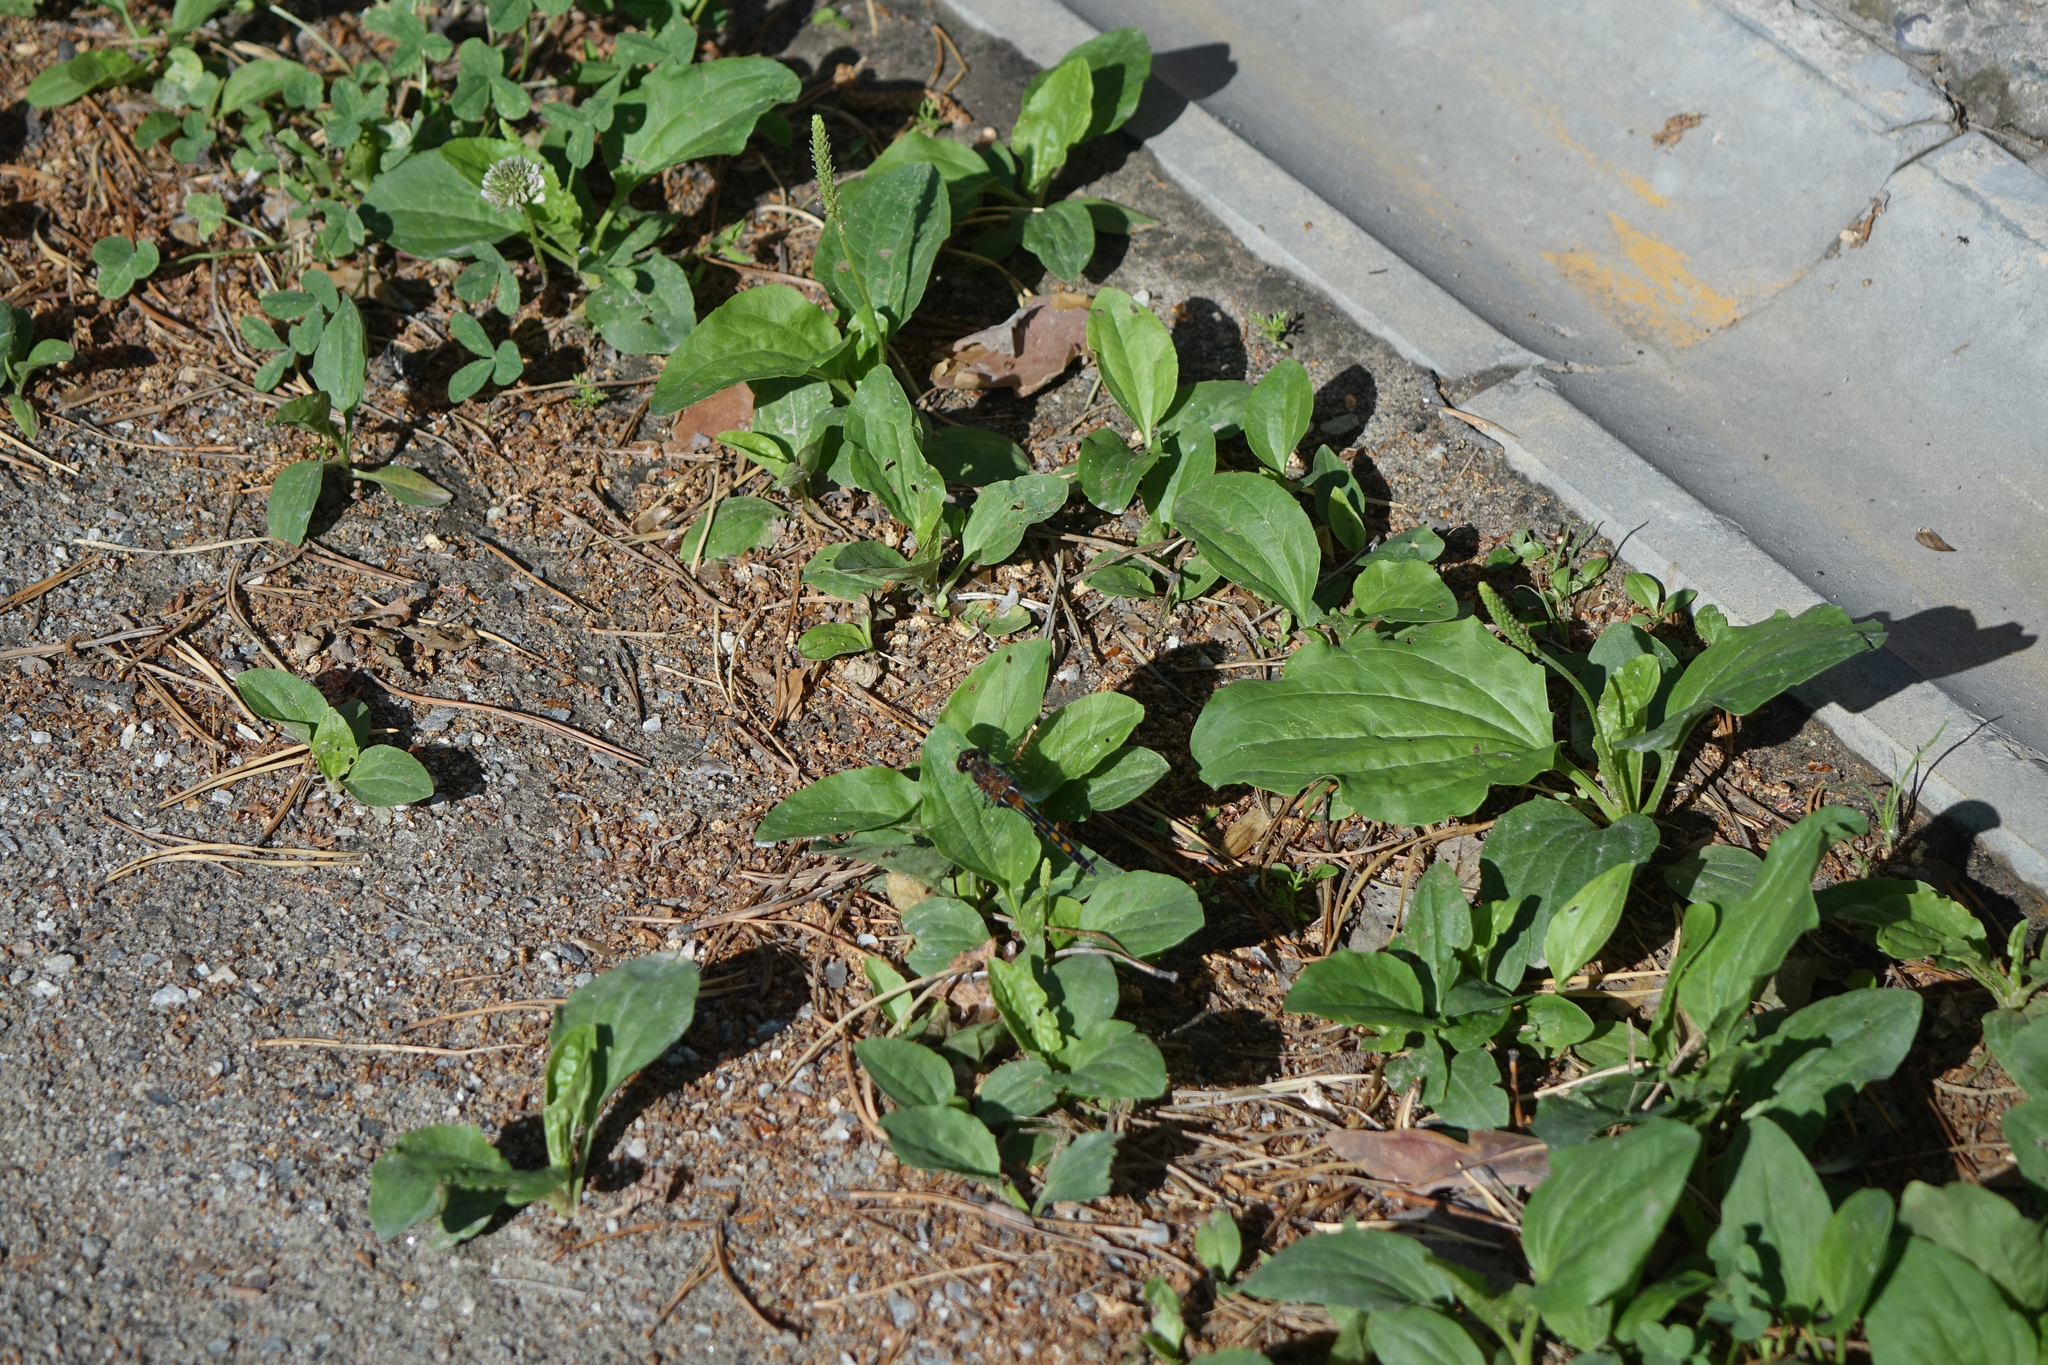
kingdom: Plantae
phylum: Tracheophyta
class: Magnoliopsida
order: Lamiales
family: Plantaginaceae
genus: Plantago
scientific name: Plantago major
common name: Common plantain
